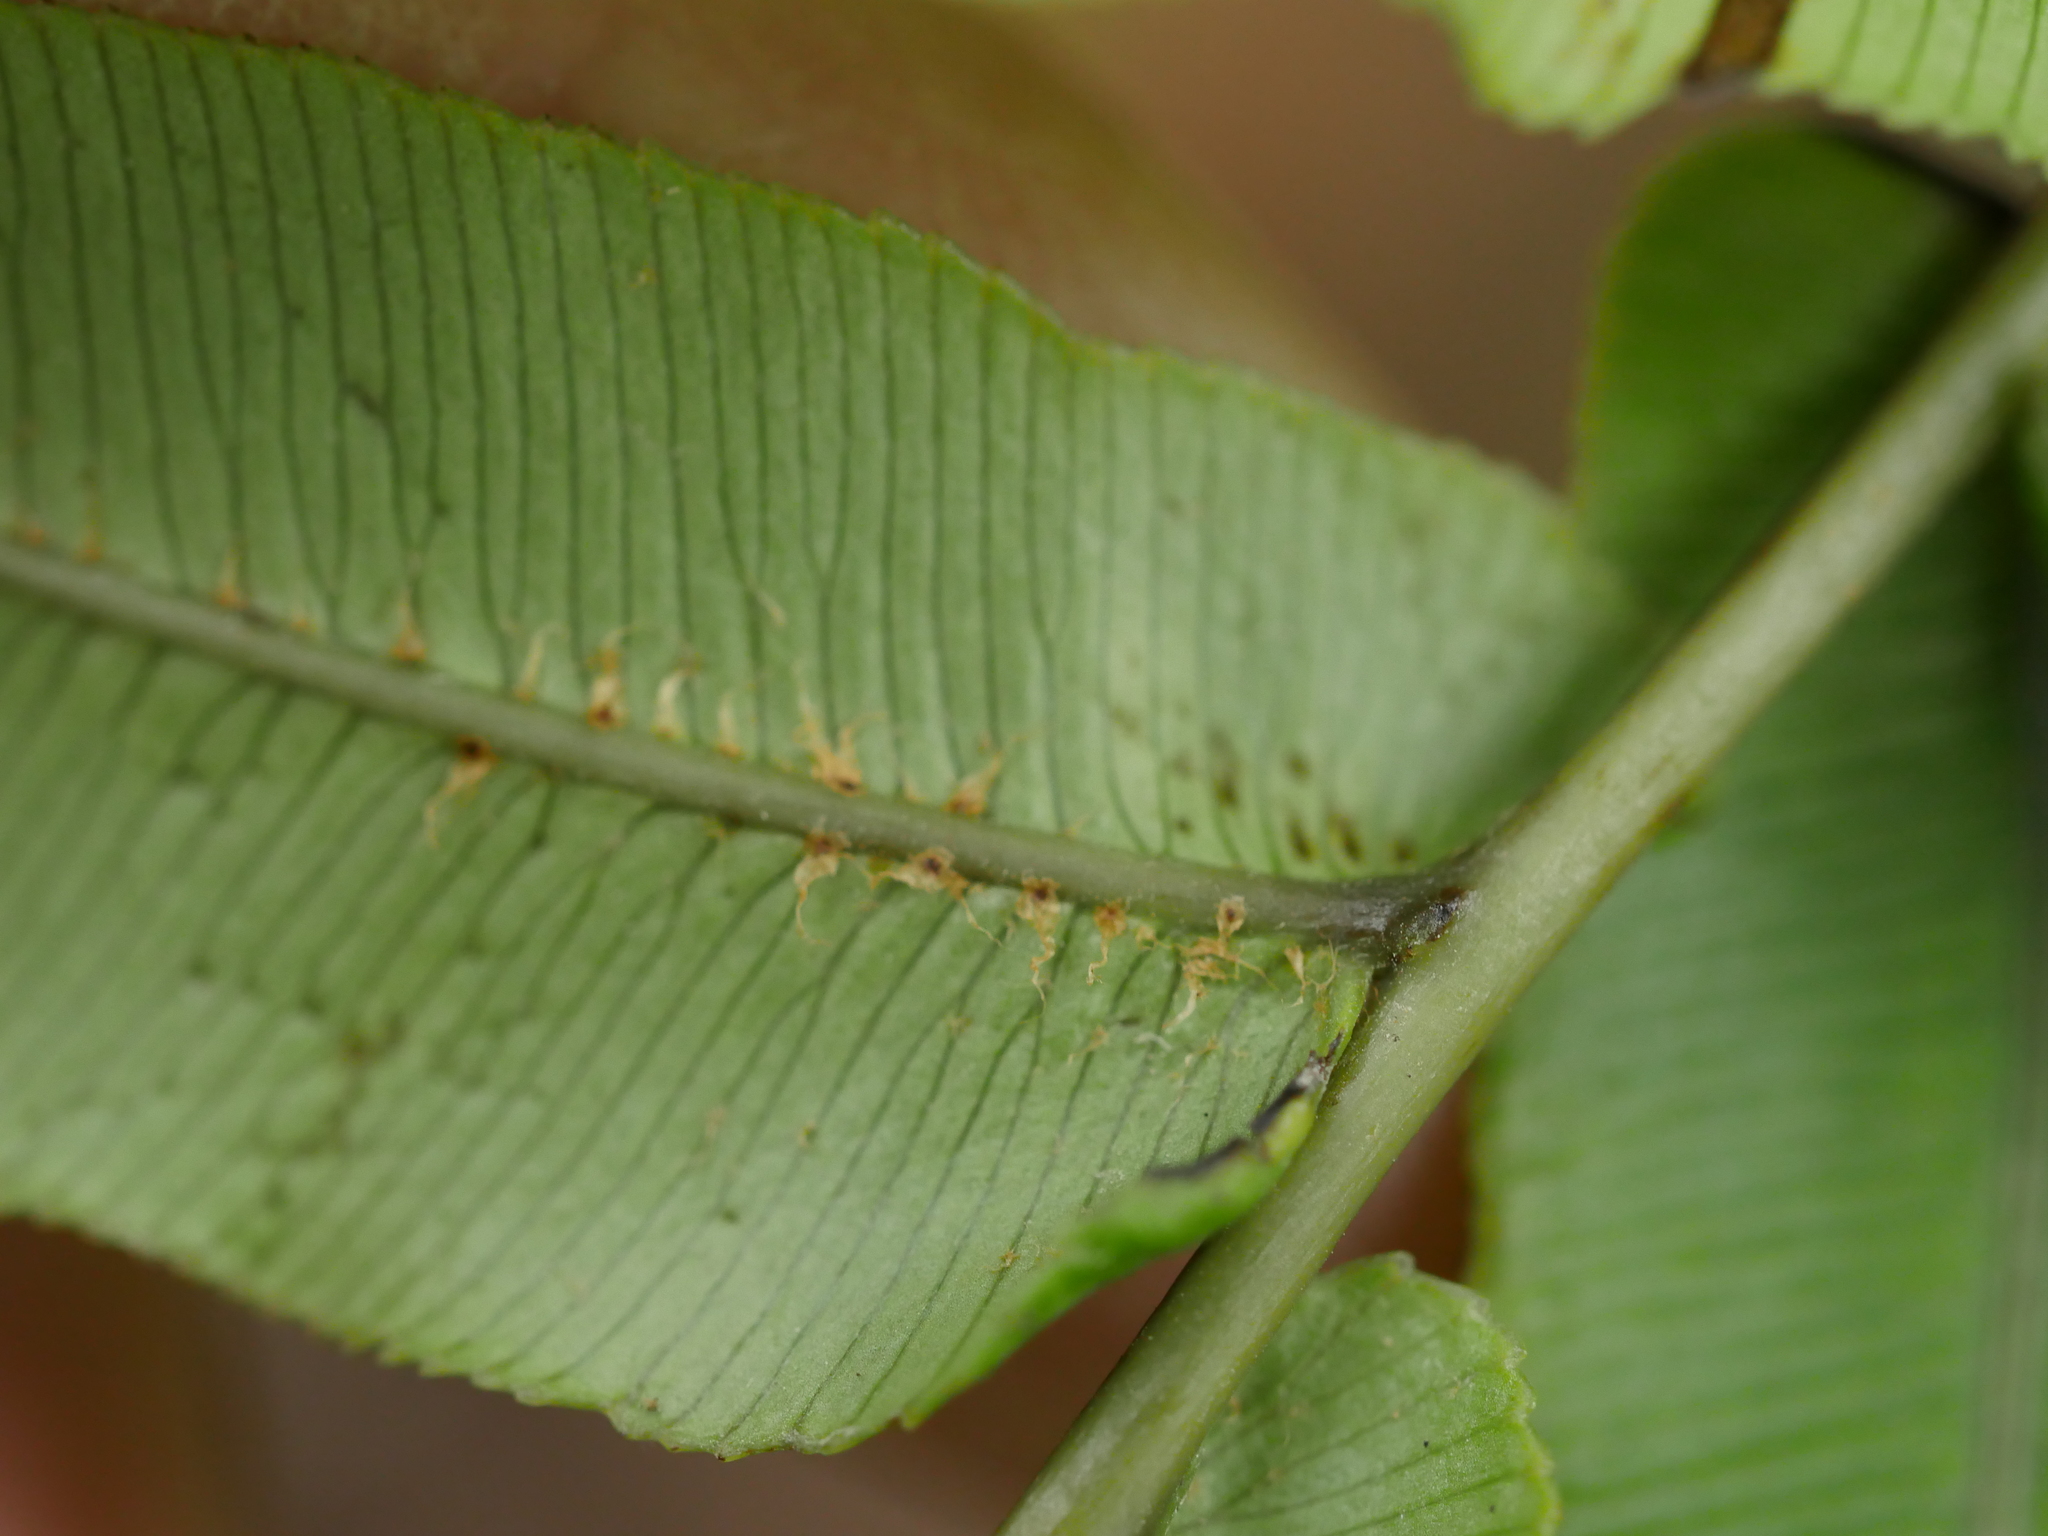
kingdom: Plantae
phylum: Tracheophyta
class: Polypodiopsida
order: Polypodiales
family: Blechnaceae
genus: Parablechnum
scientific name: Parablechnum novae-zelandiae
